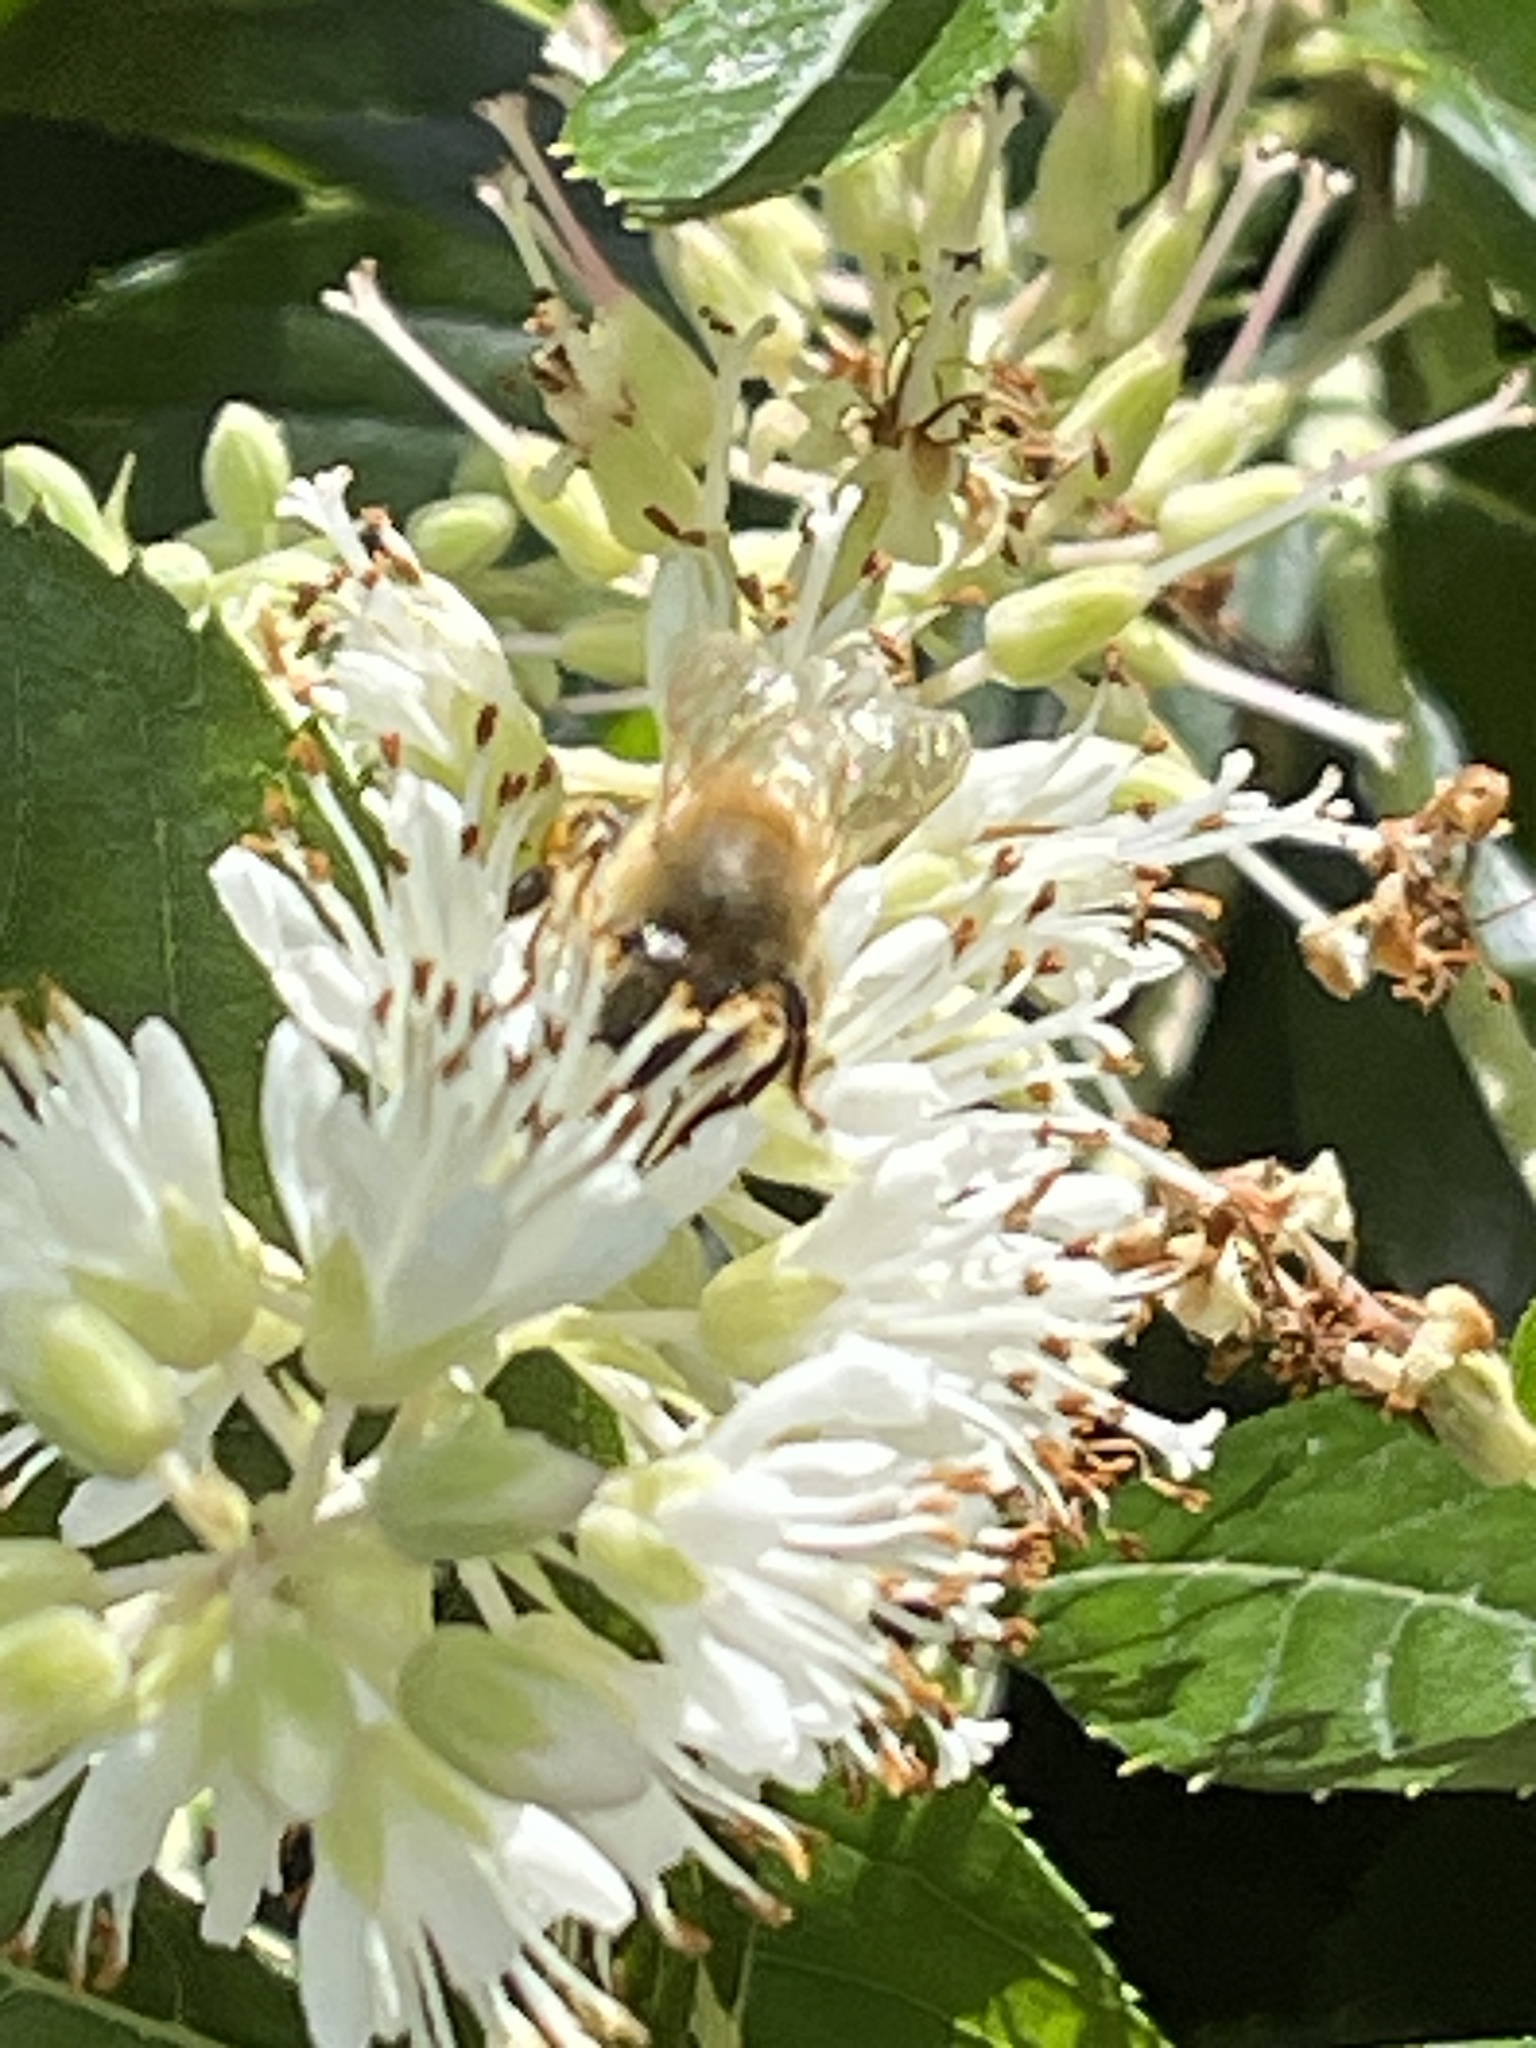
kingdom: Animalia
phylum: Arthropoda
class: Insecta
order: Hymenoptera
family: Apidae
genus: Apis
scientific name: Apis mellifera
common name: Honey bee
